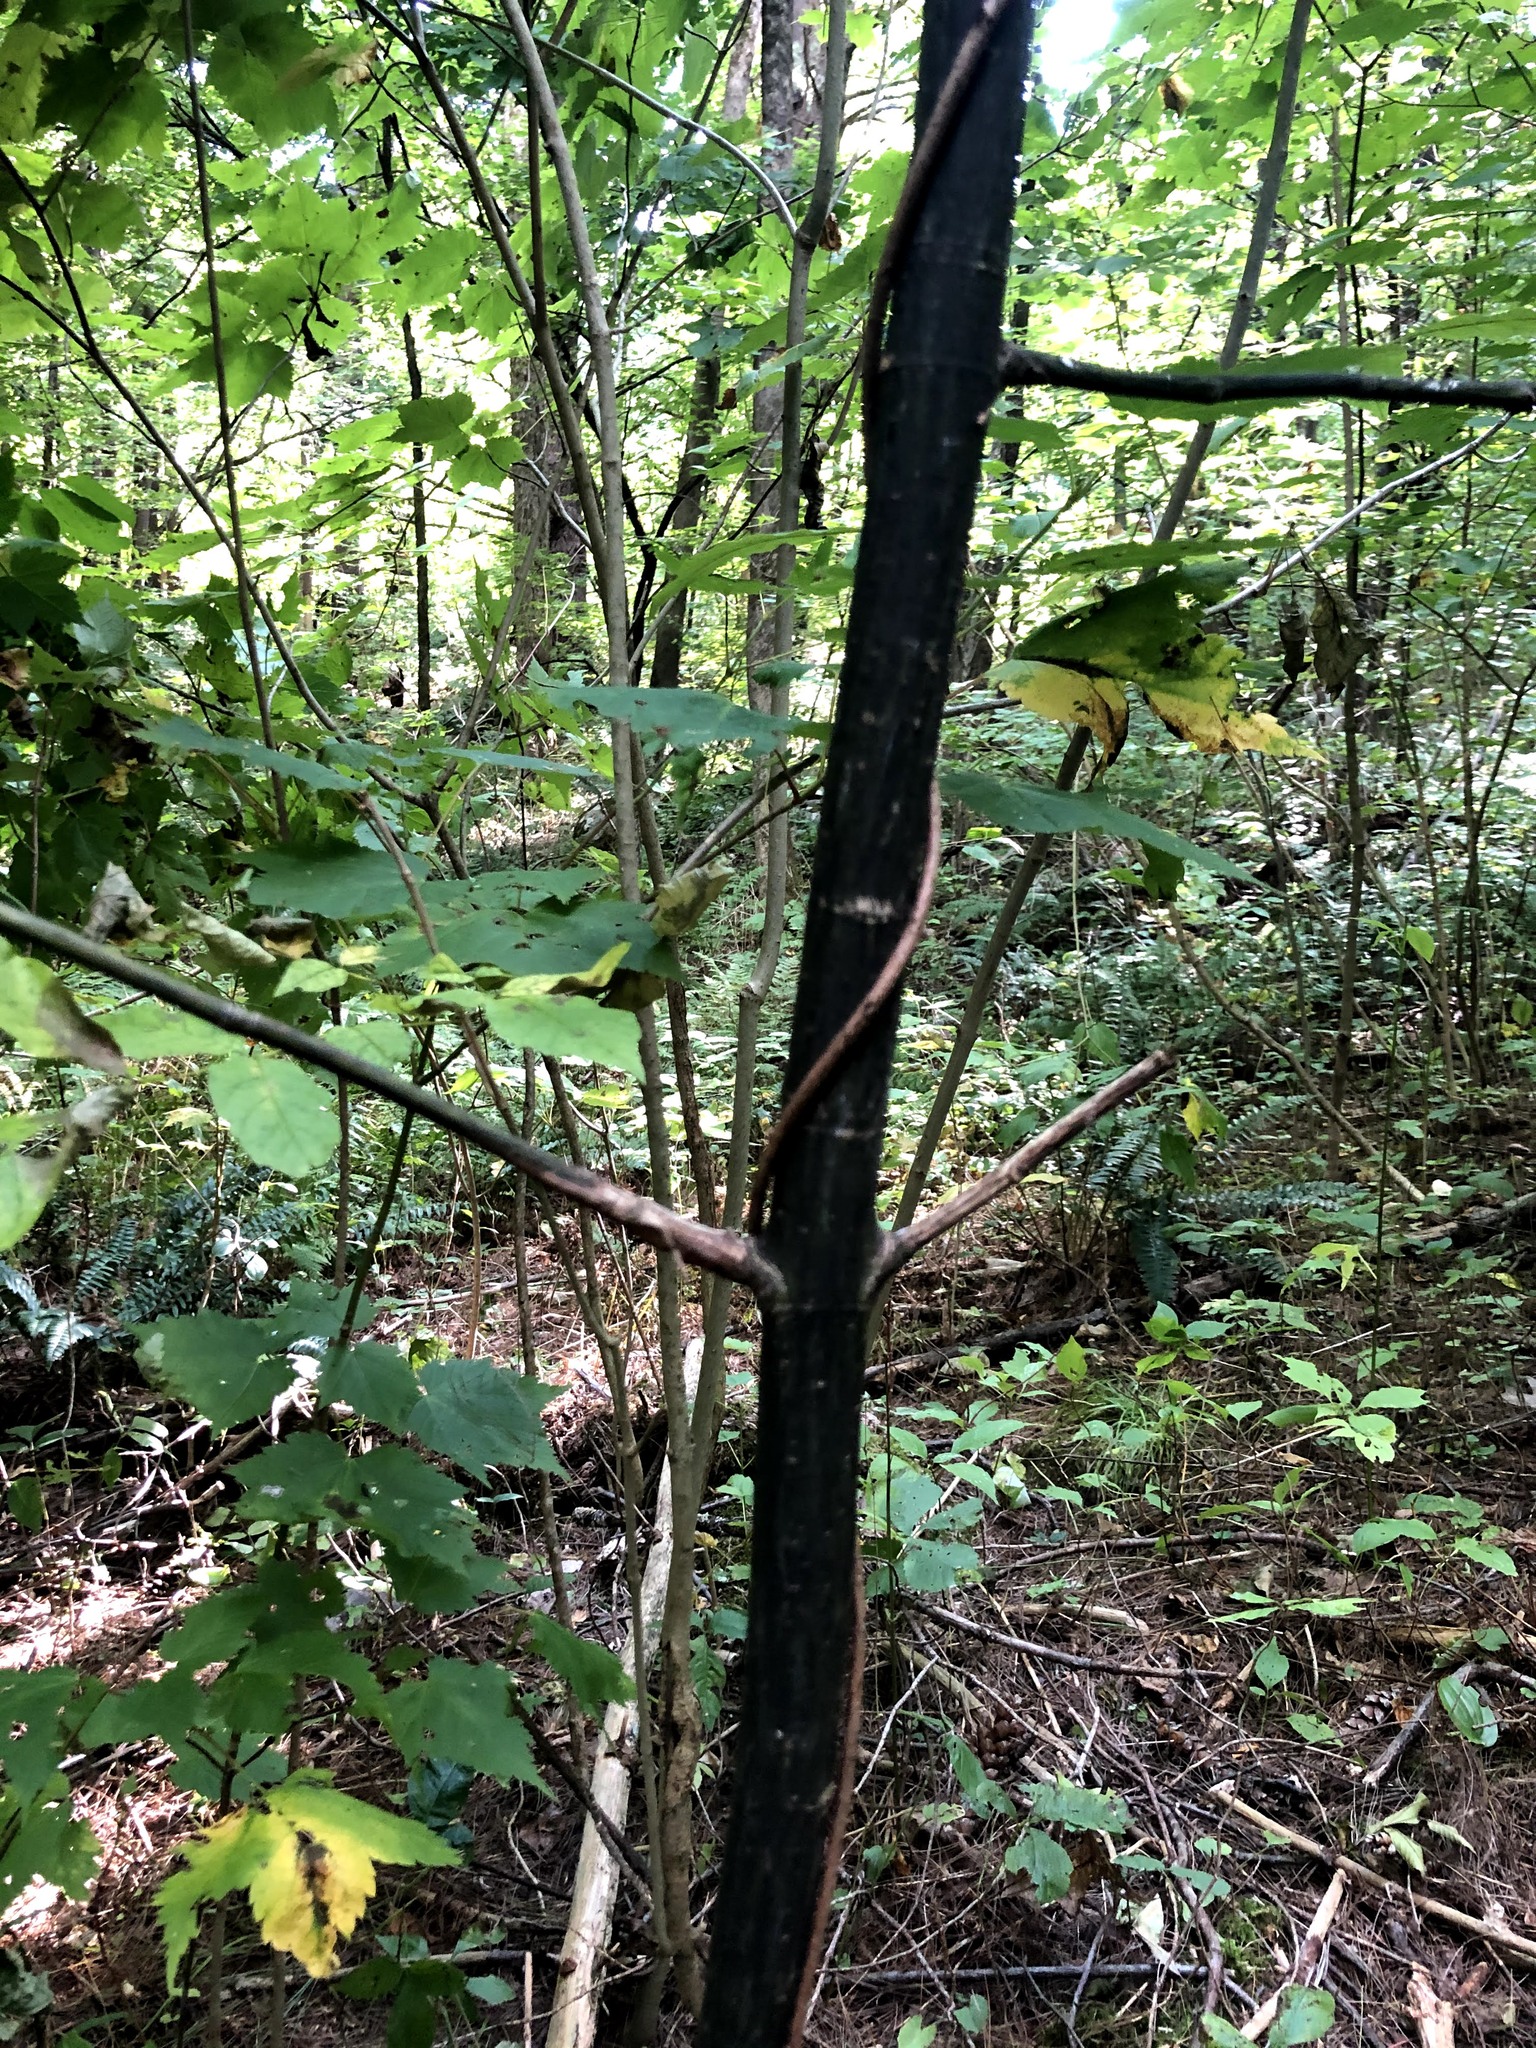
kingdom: Plantae
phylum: Tracheophyta
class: Magnoliopsida
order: Sapindales
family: Sapindaceae
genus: Acer
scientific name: Acer pensylvanicum
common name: Moosewood
